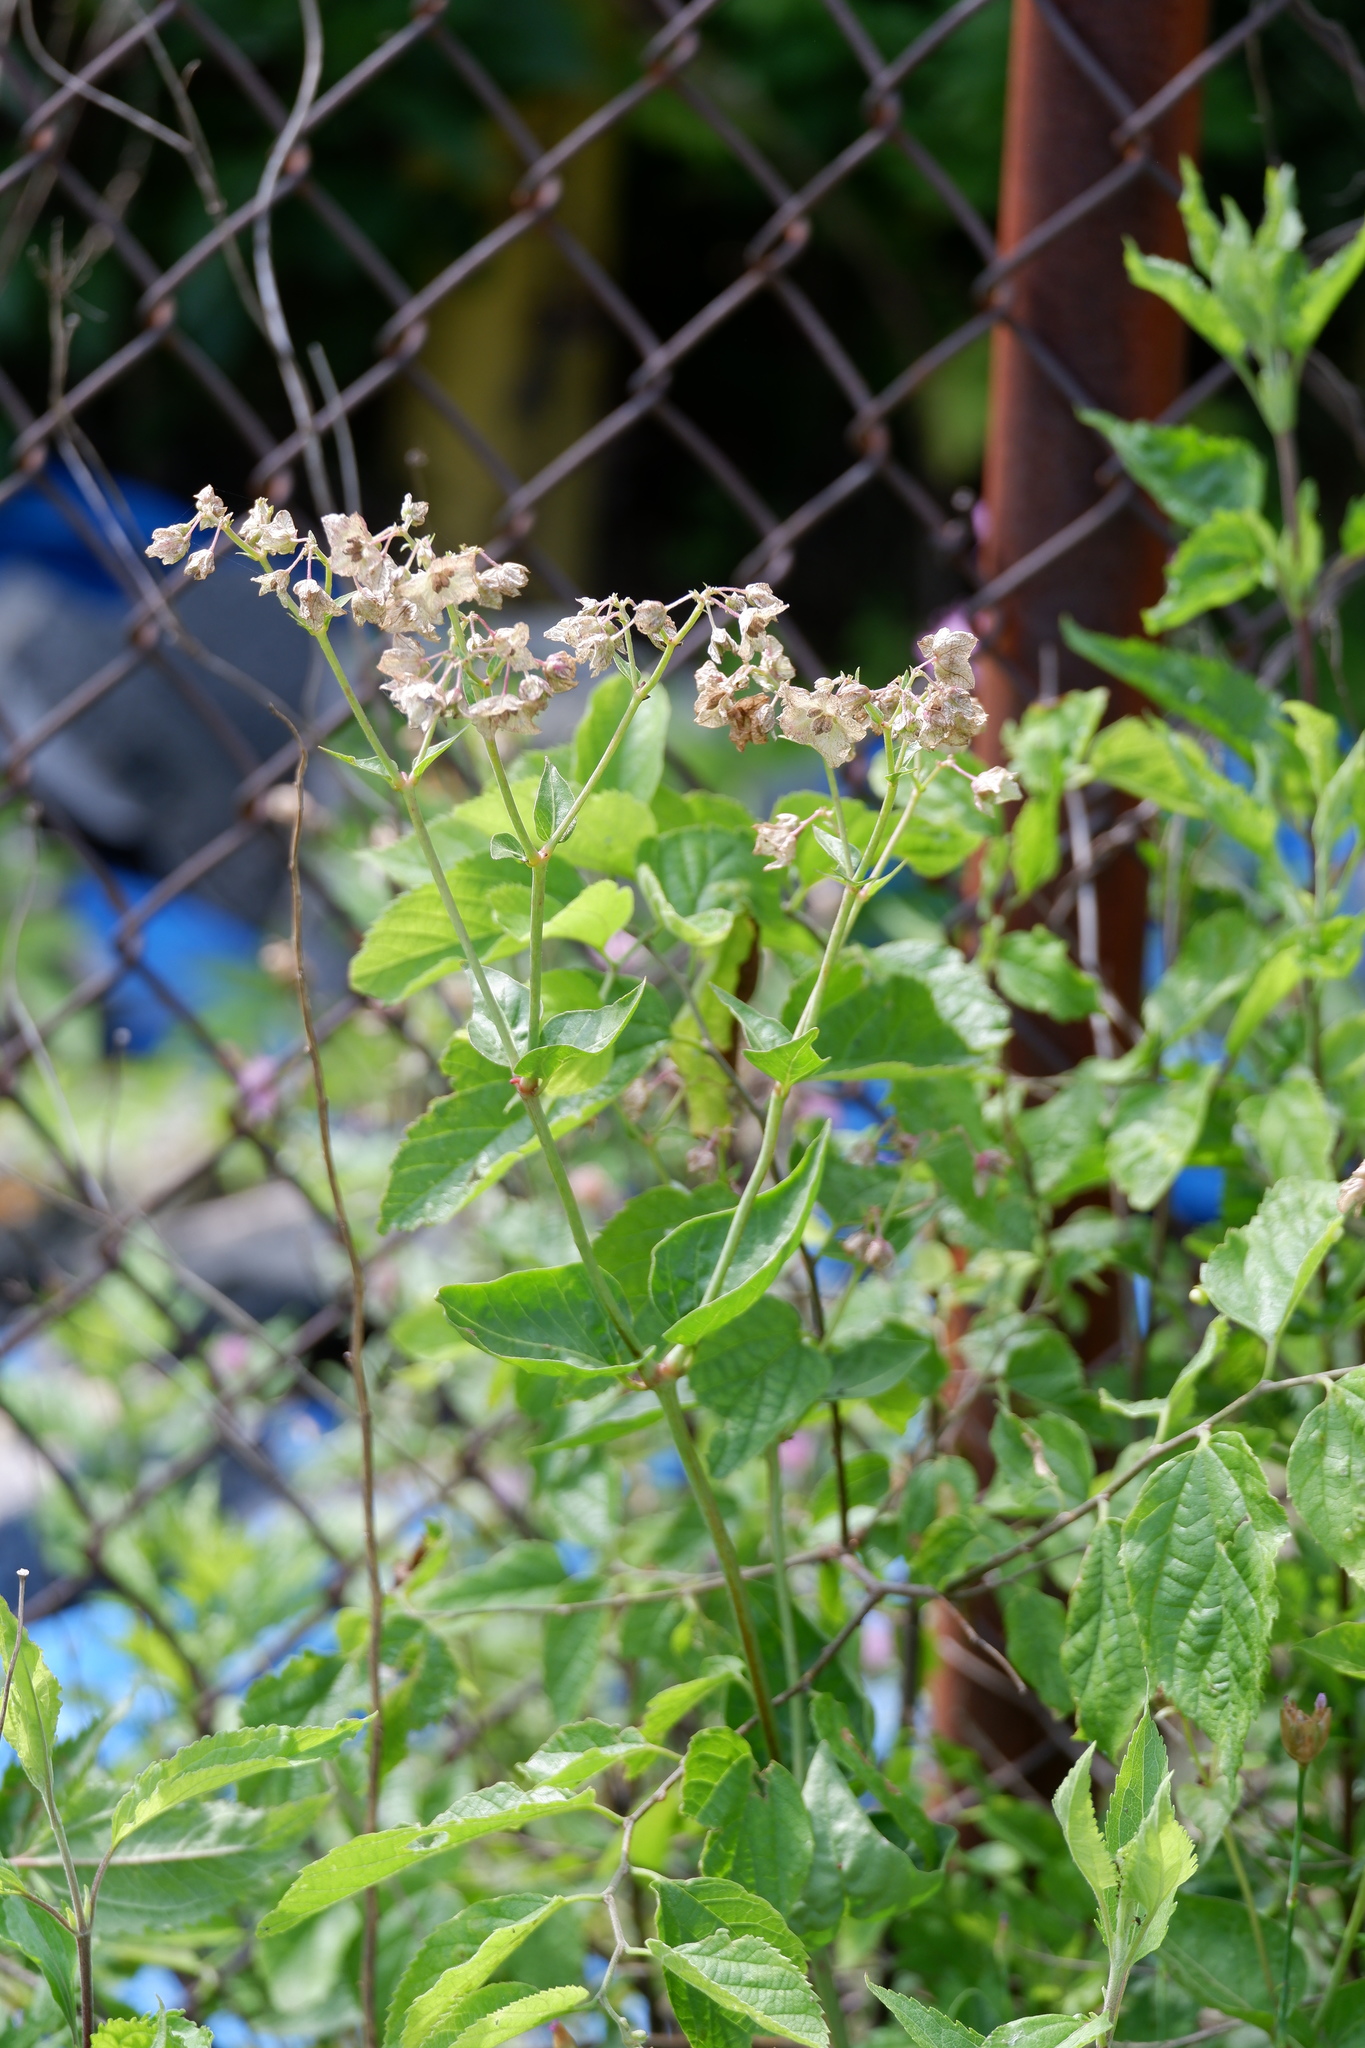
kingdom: Plantae
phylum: Tracheophyta
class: Magnoliopsida
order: Caryophyllales
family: Nyctaginaceae
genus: Mirabilis
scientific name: Mirabilis nyctaginea
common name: Umbrella wort
